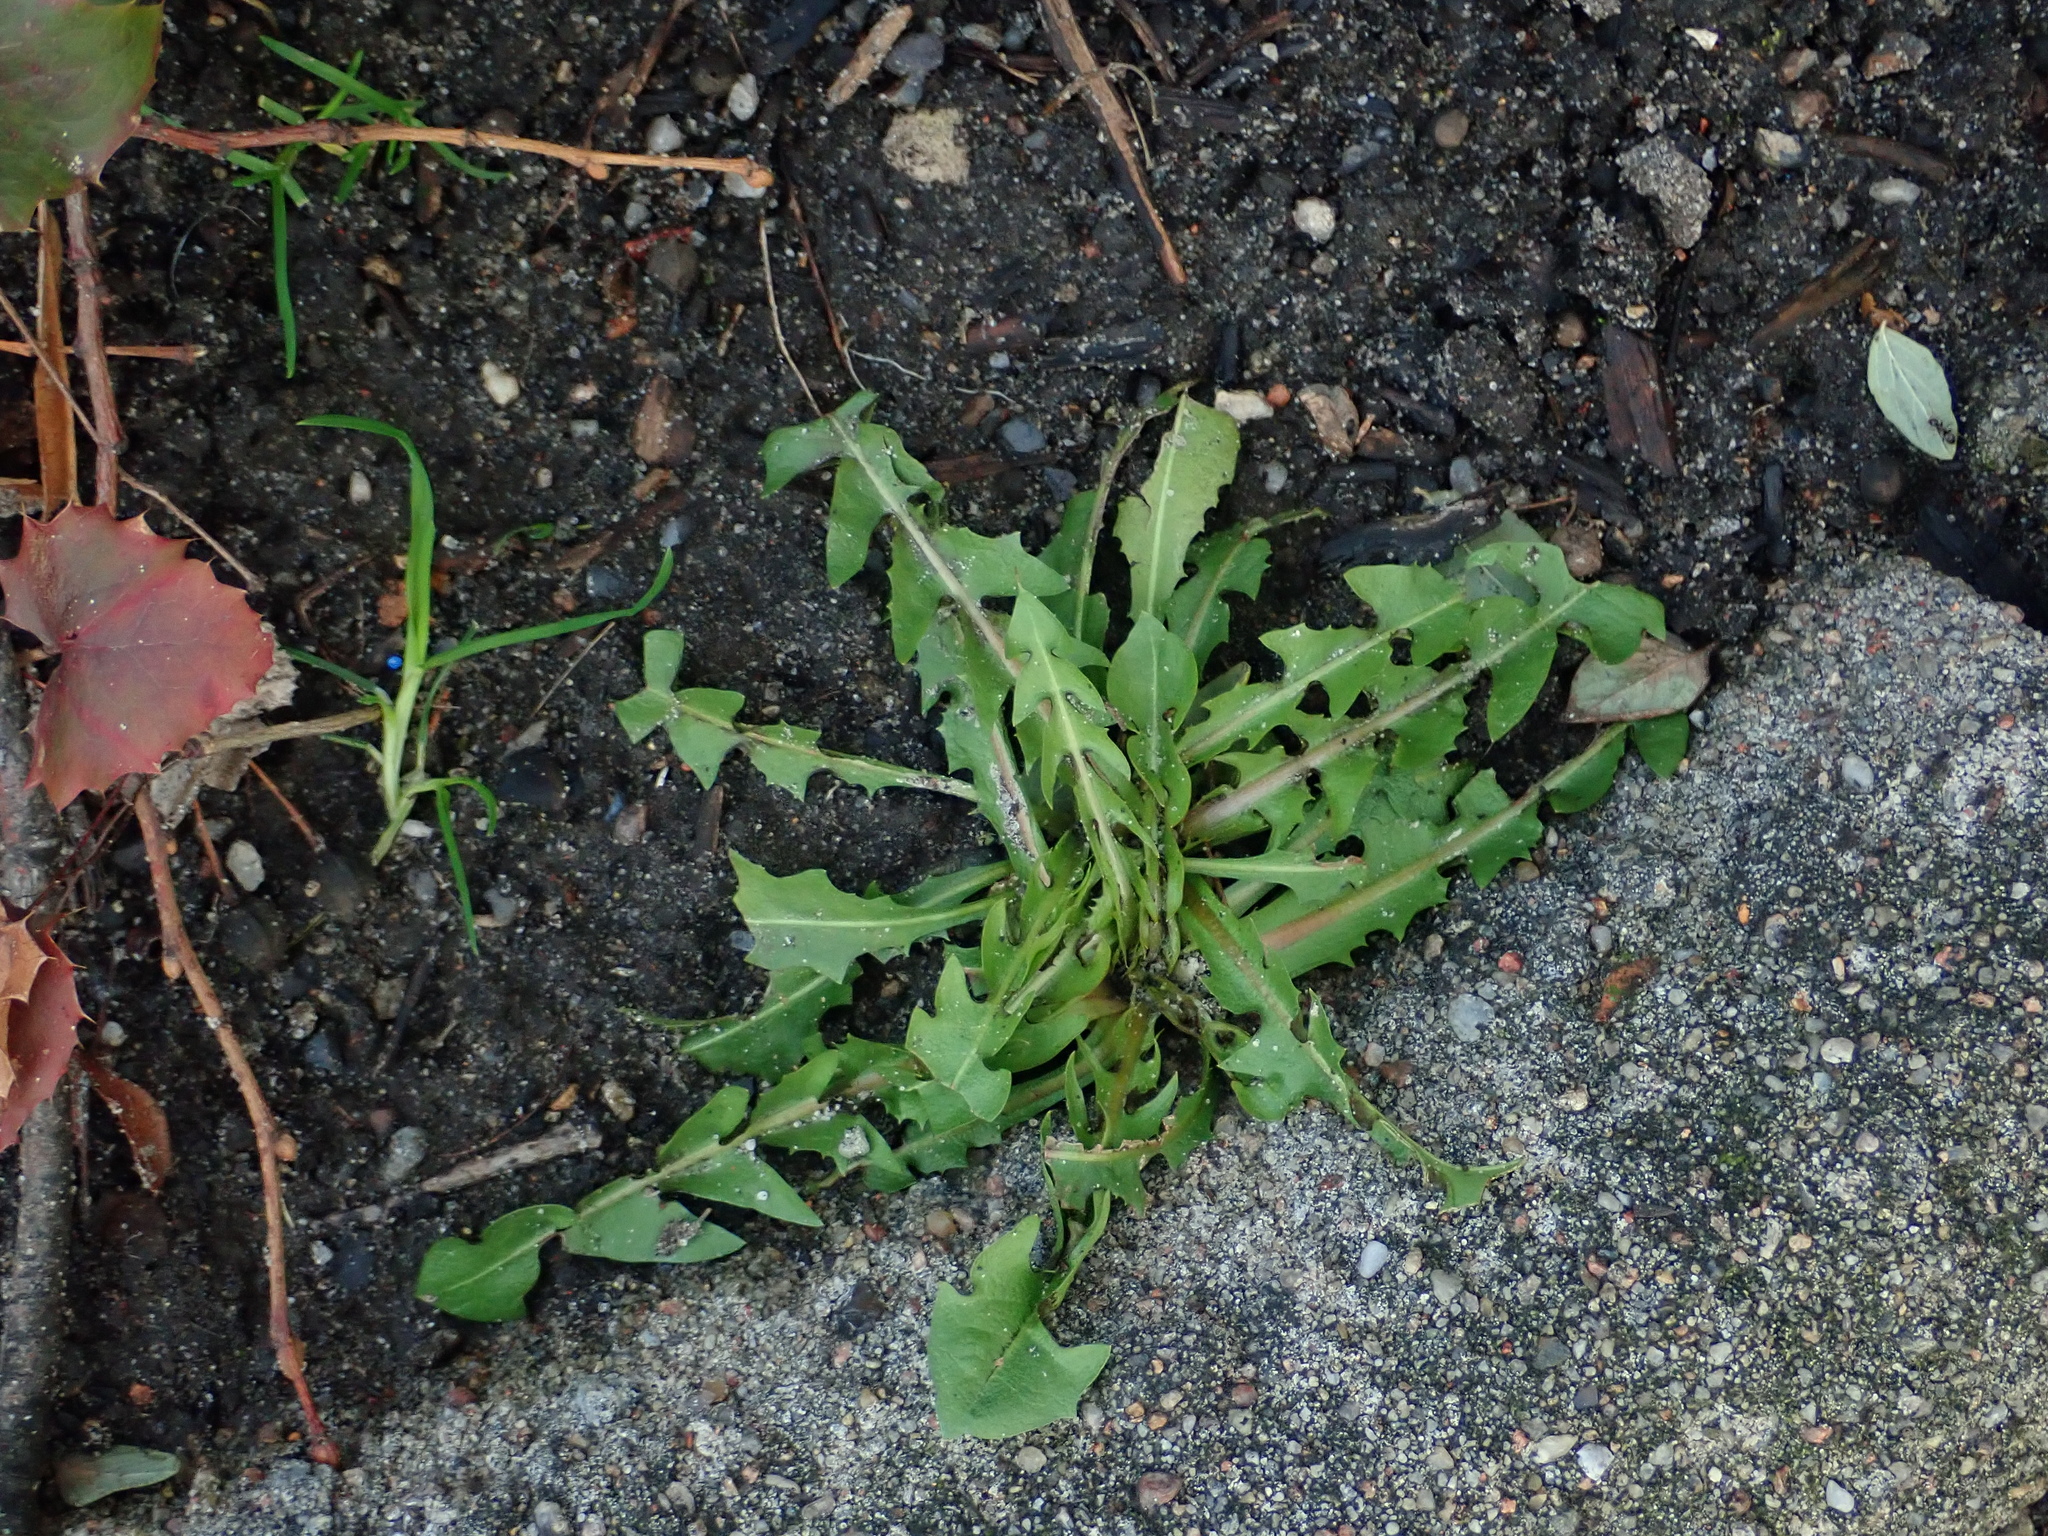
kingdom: Plantae
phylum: Tracheophyta
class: Magnoliopsida
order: Asterales
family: Asteraceae
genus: Taraxacum
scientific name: Taraxacum officinale
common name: Common dandelion
